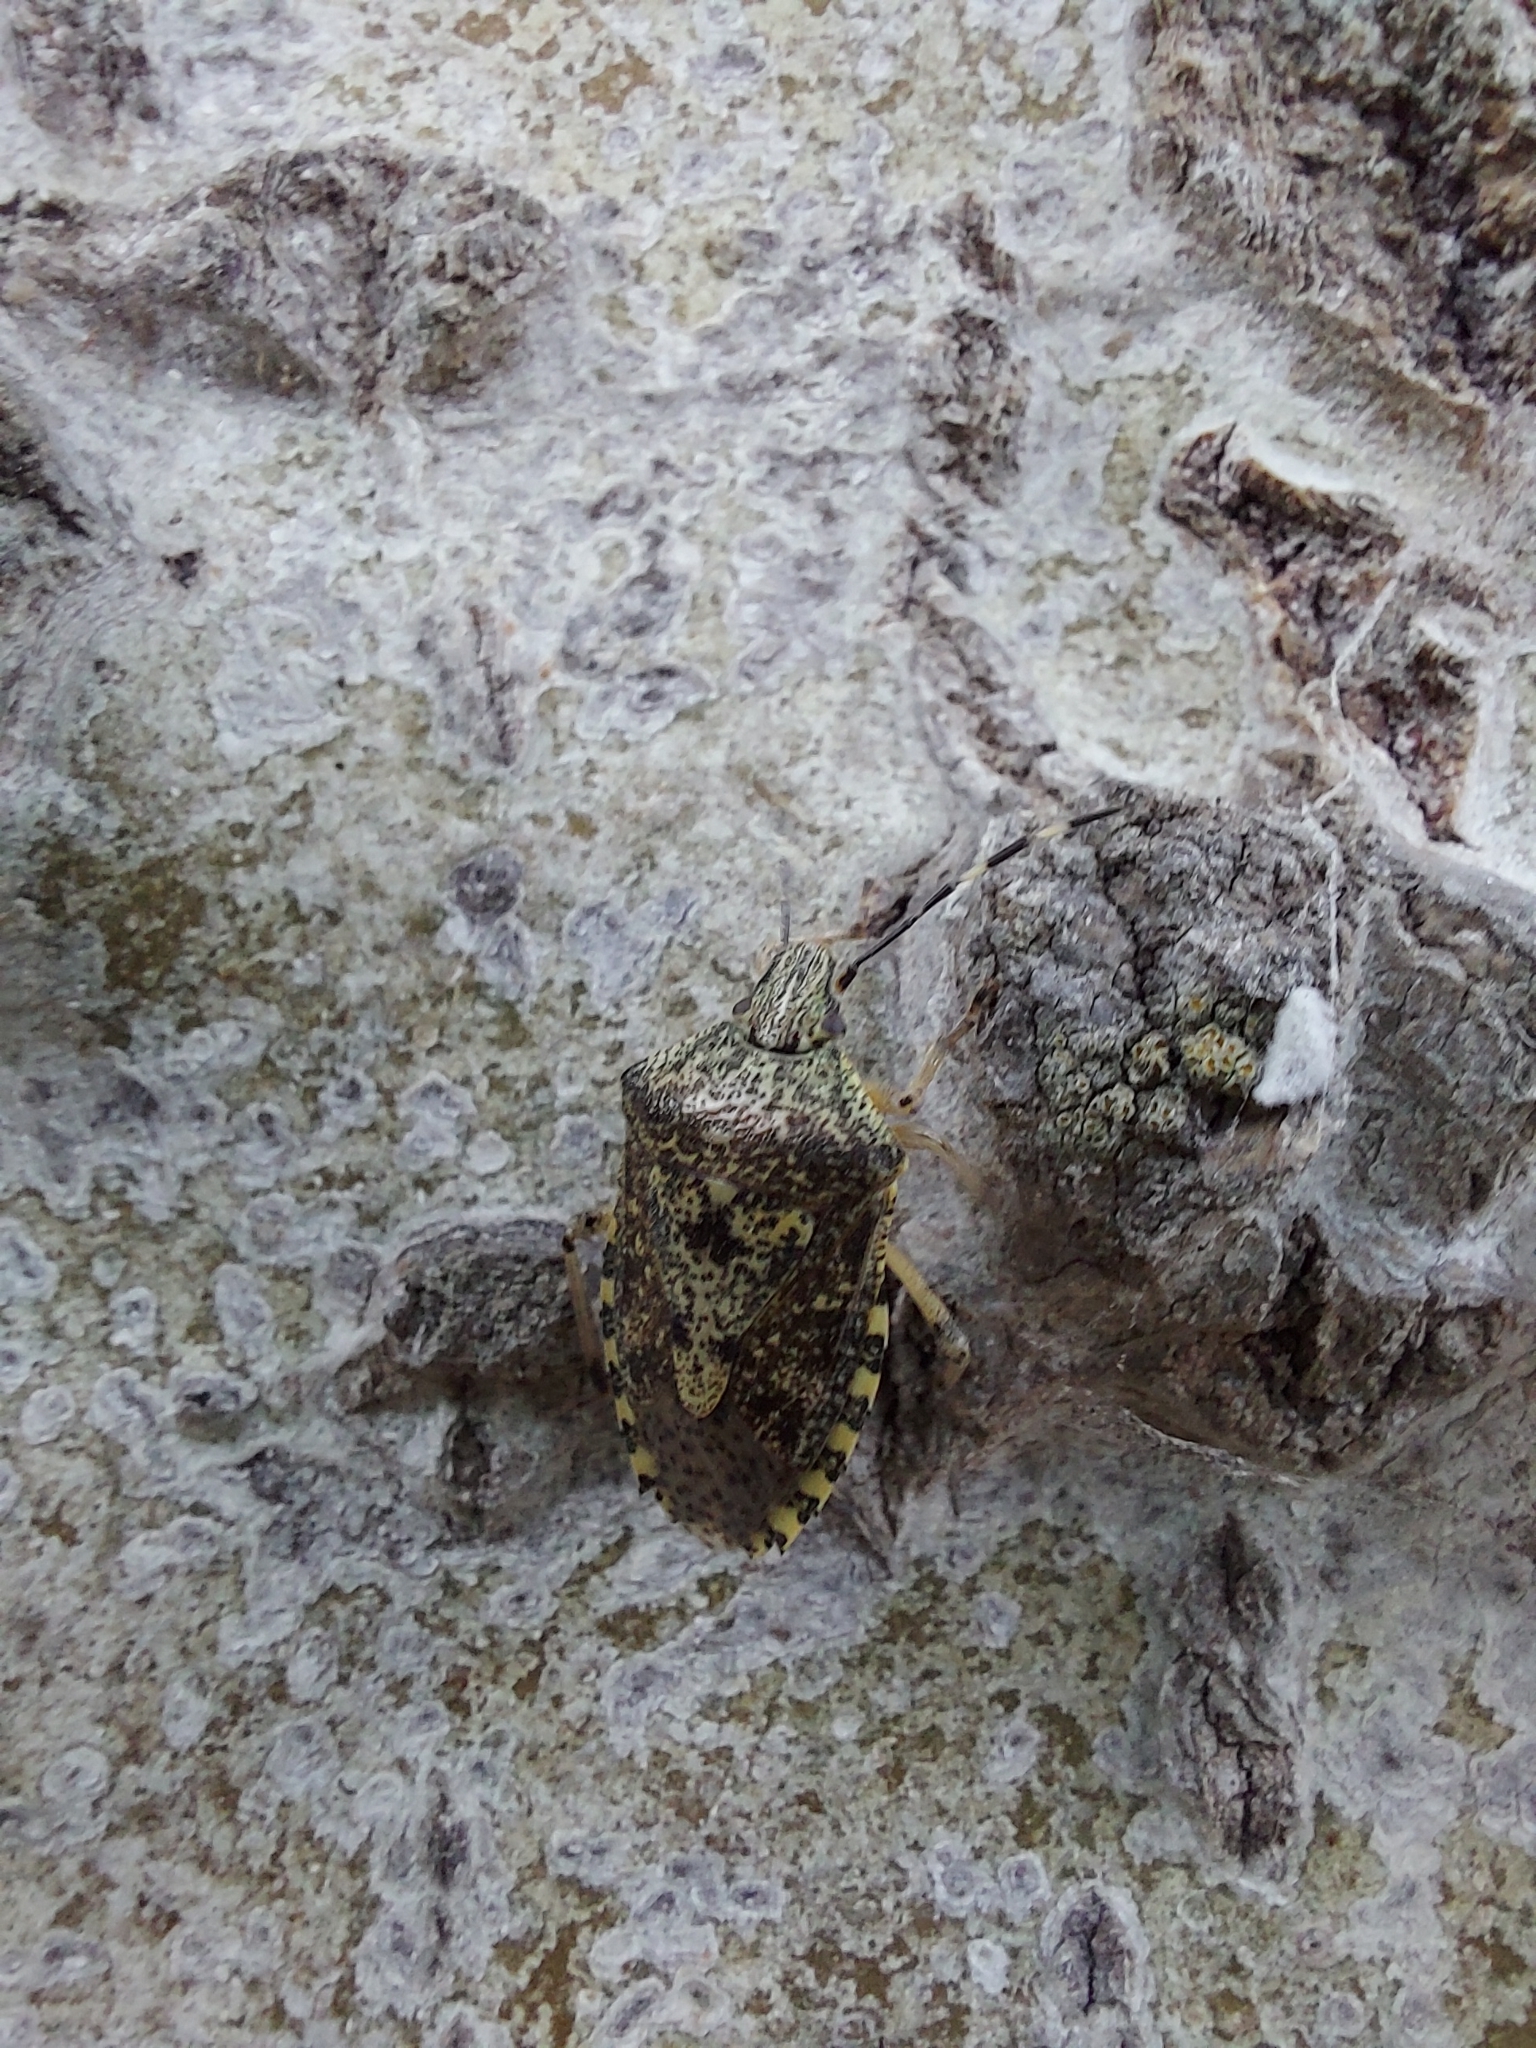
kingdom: Animalia
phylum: Arthropoda
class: Insecta
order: Hemiptera
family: Pentatomidae
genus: Rhaphigaster
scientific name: Rhaphigaster nebulosa
